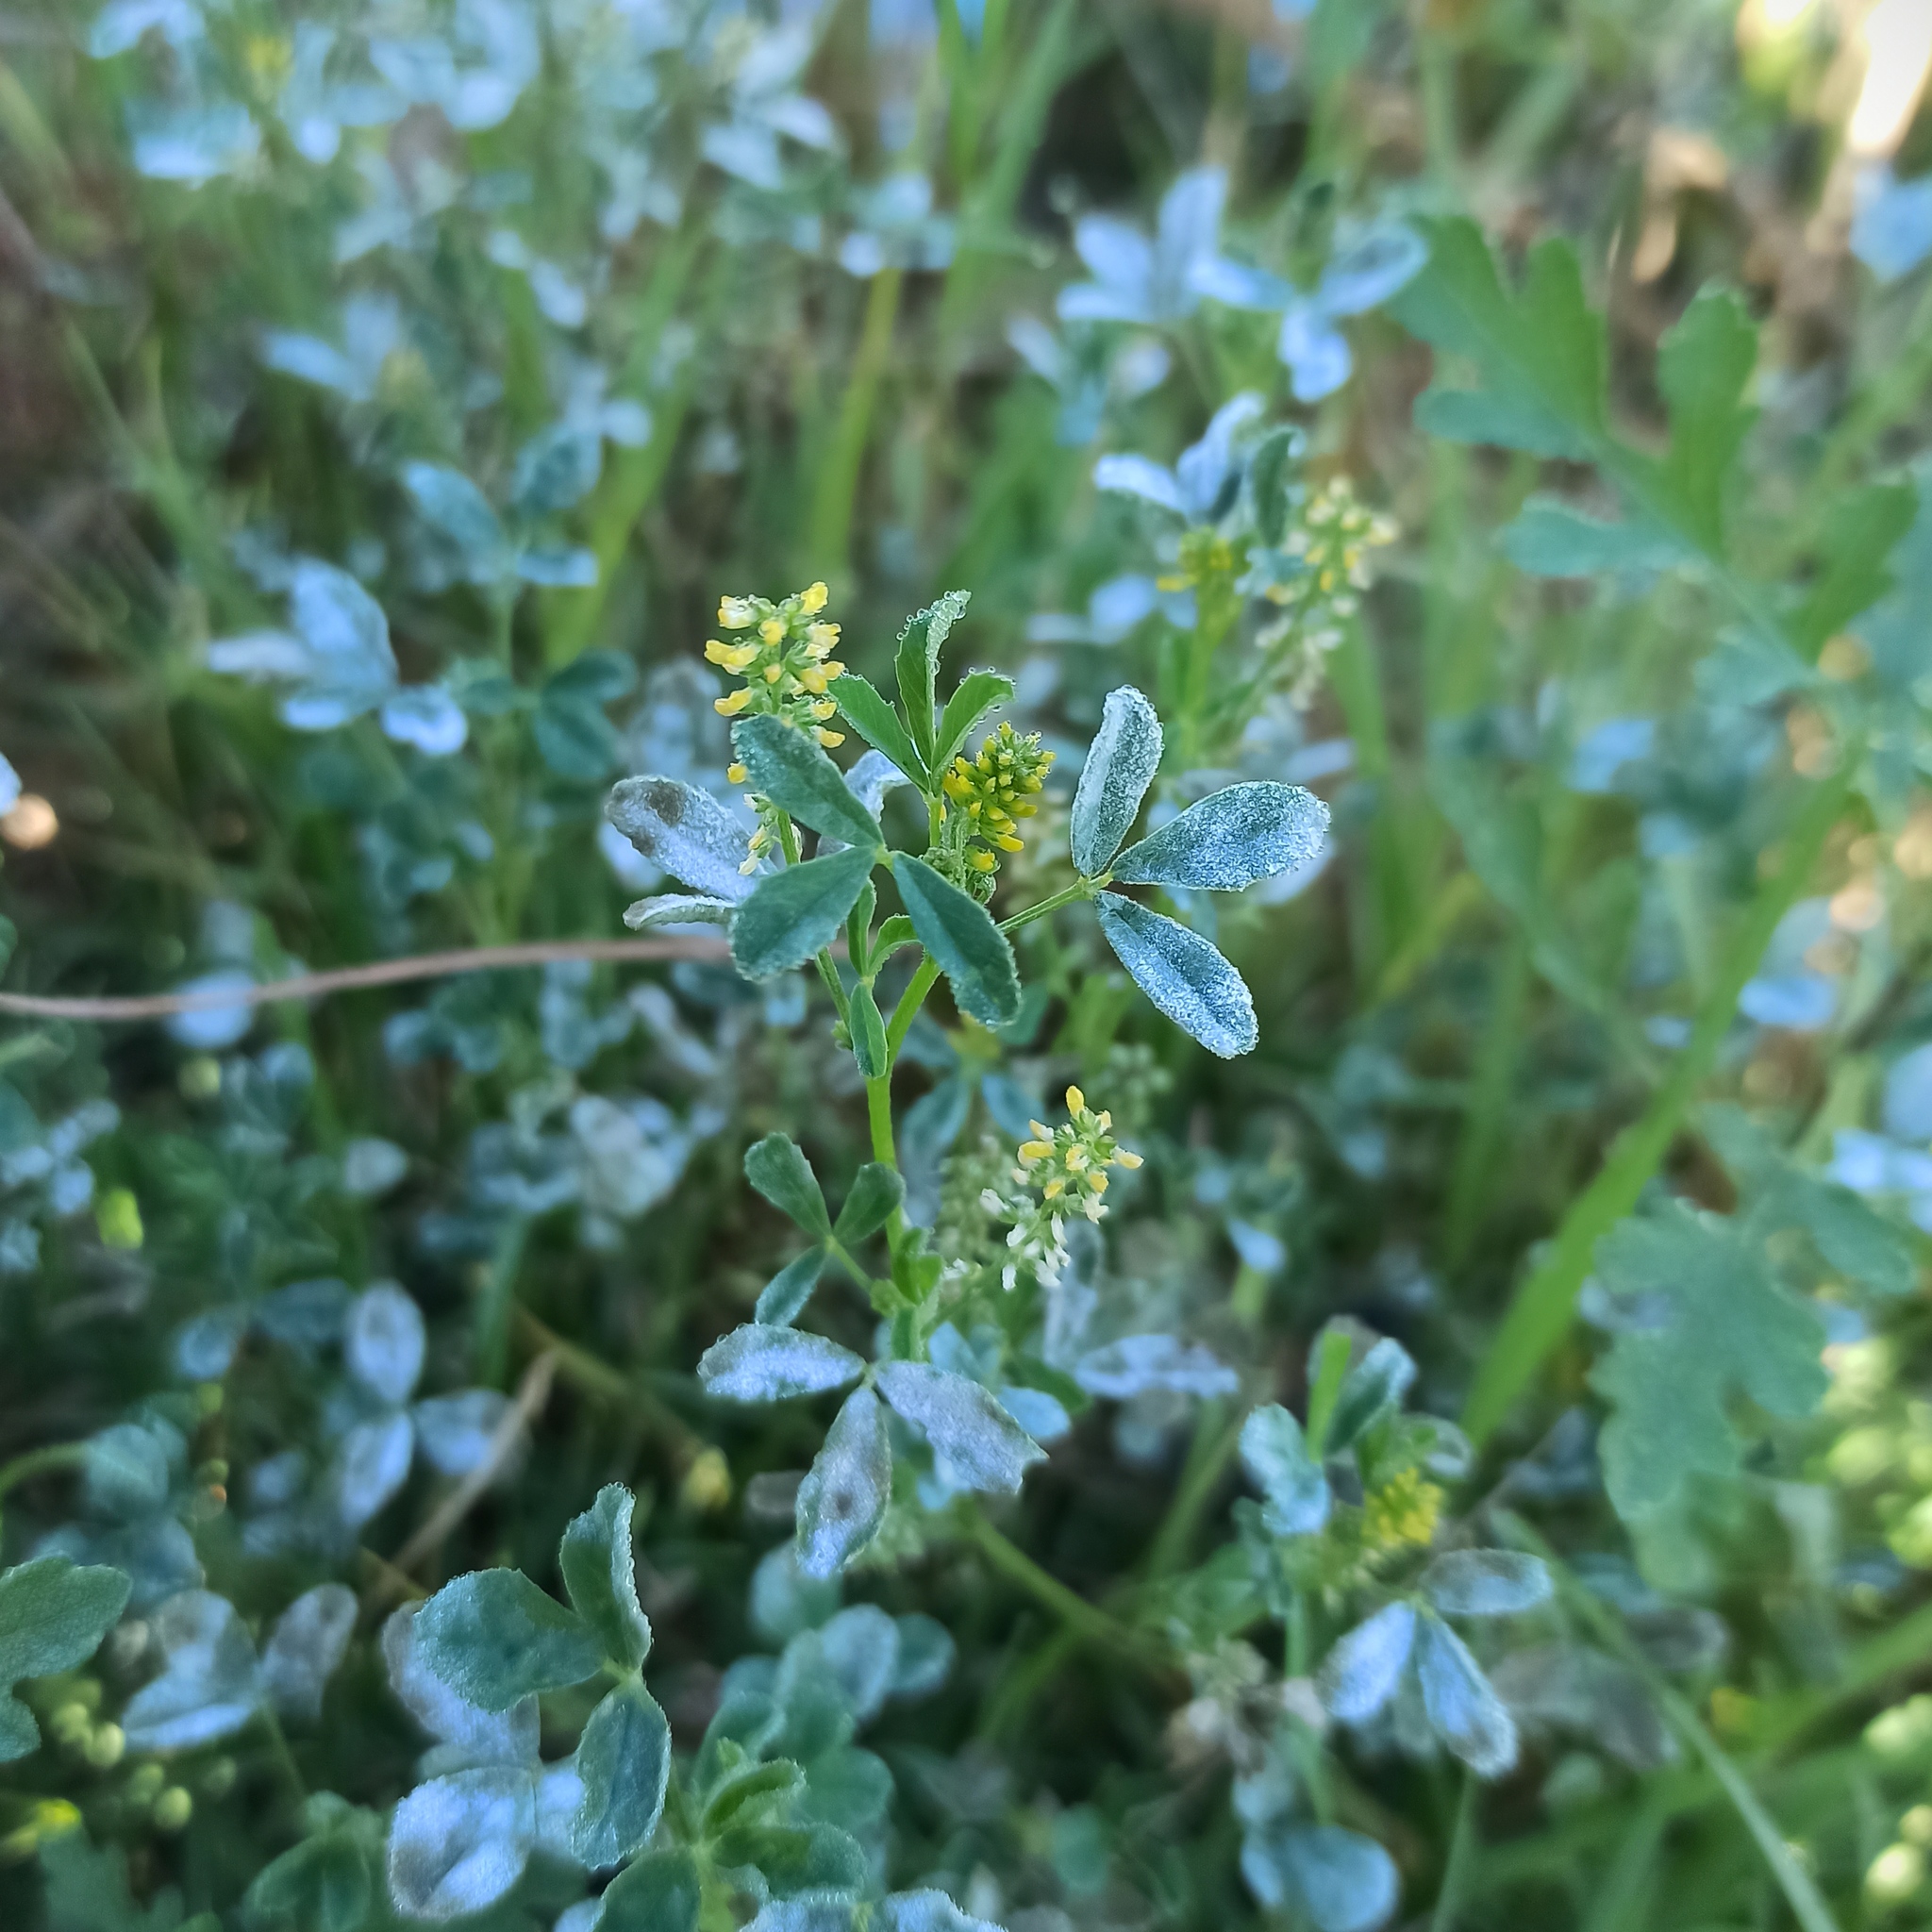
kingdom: Plantae
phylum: Tracheophyta
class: Magnoliopsida
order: Fabales
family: Fabaceae
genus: Melilotus
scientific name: Melilotus indicus
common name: Small melilot
